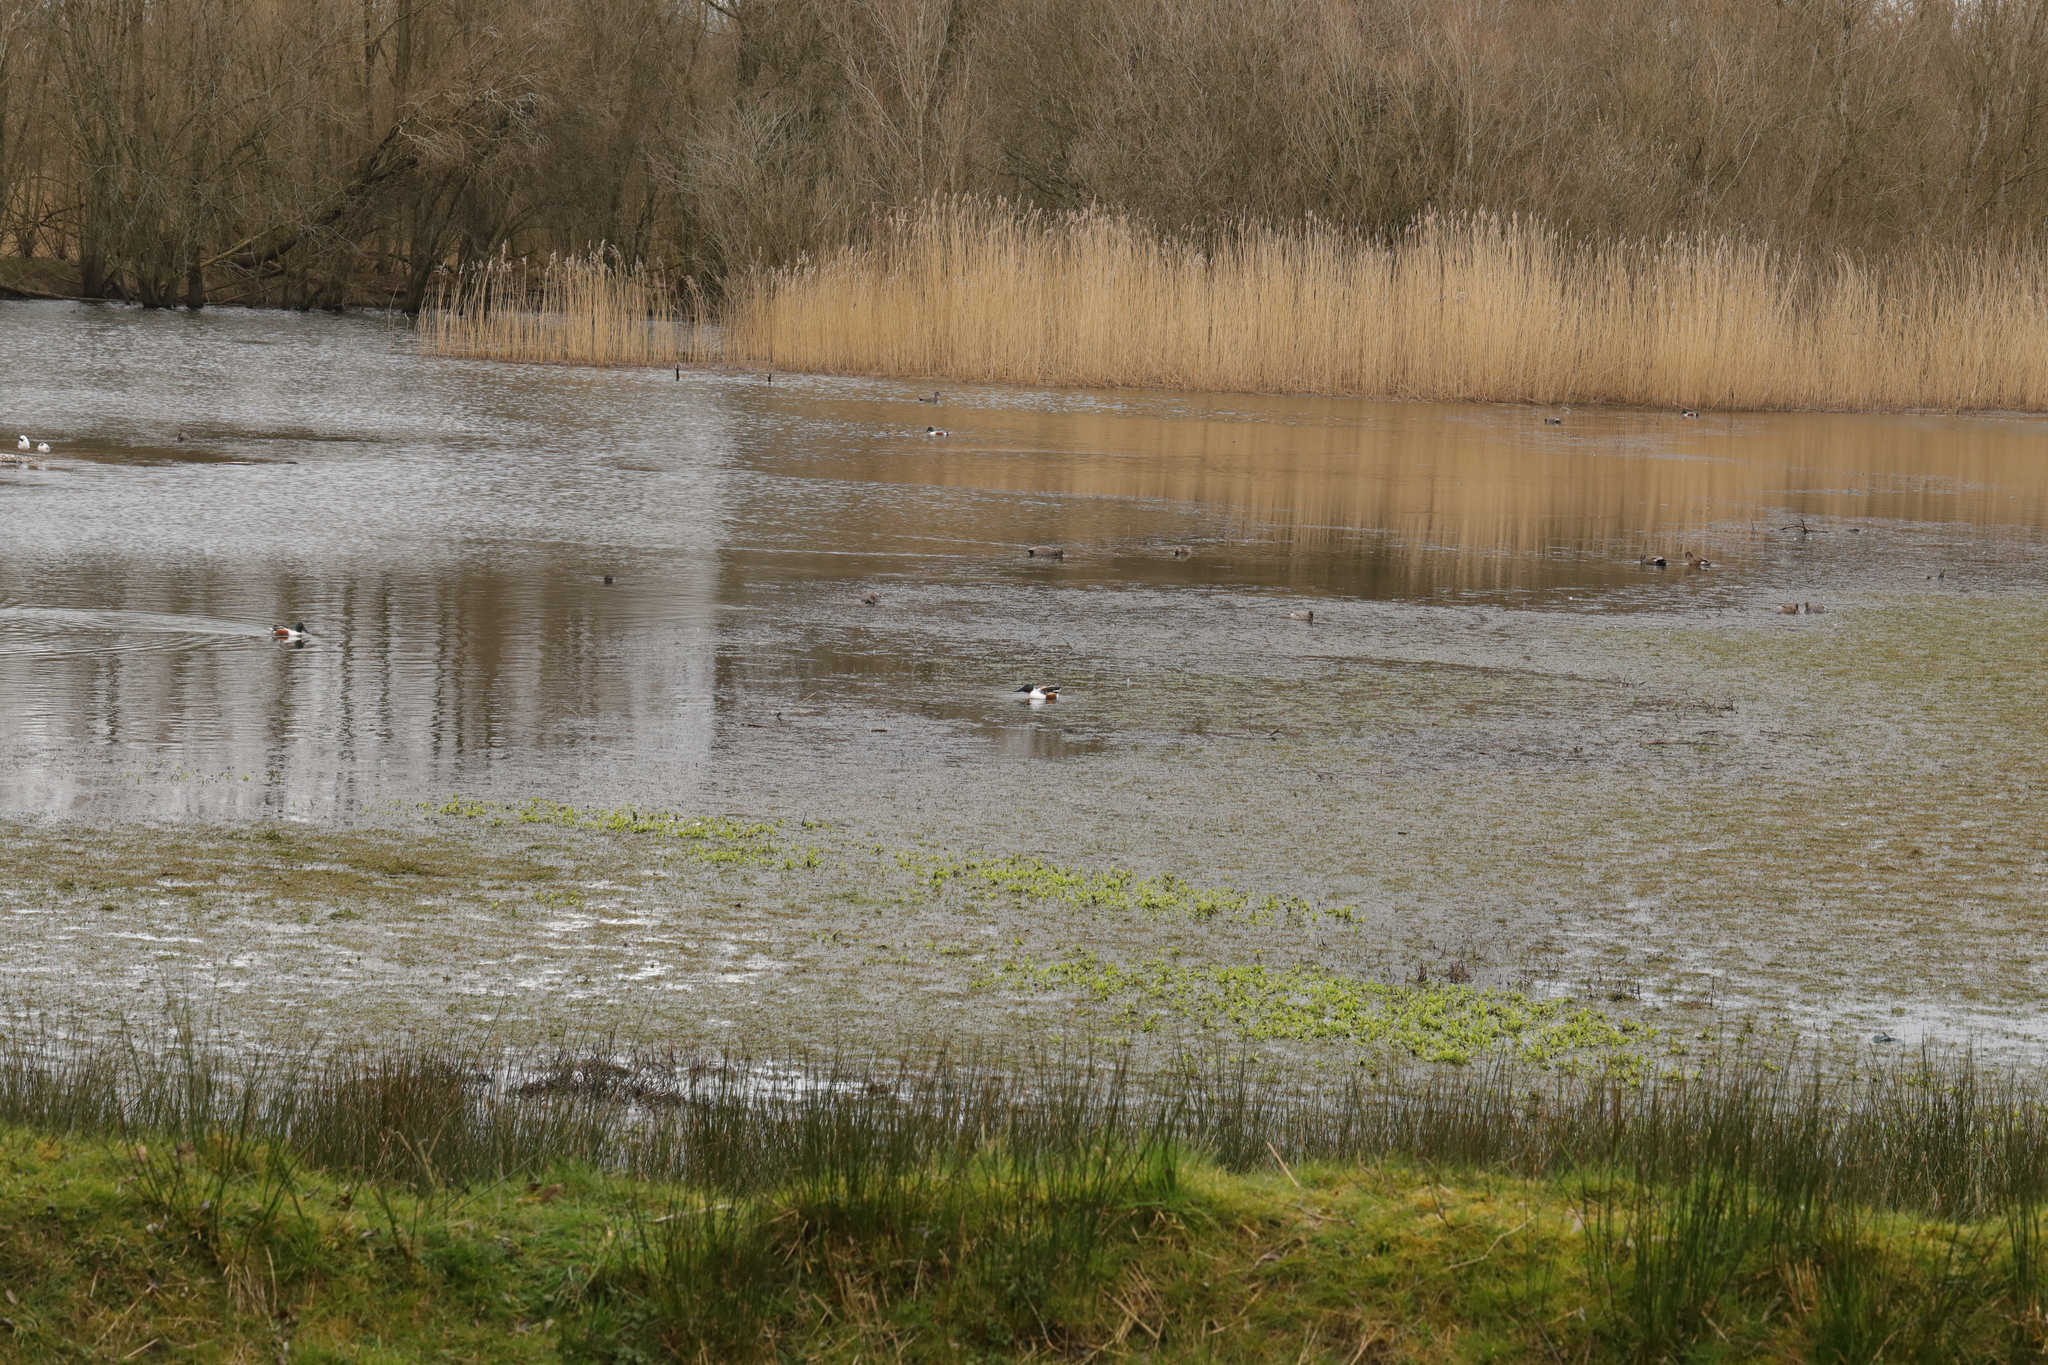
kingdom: Animalia
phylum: Chordata
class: Aves
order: Anseriformes
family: Anatidae
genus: Spatula
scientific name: Spatula clypeata
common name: Northern shoveler
